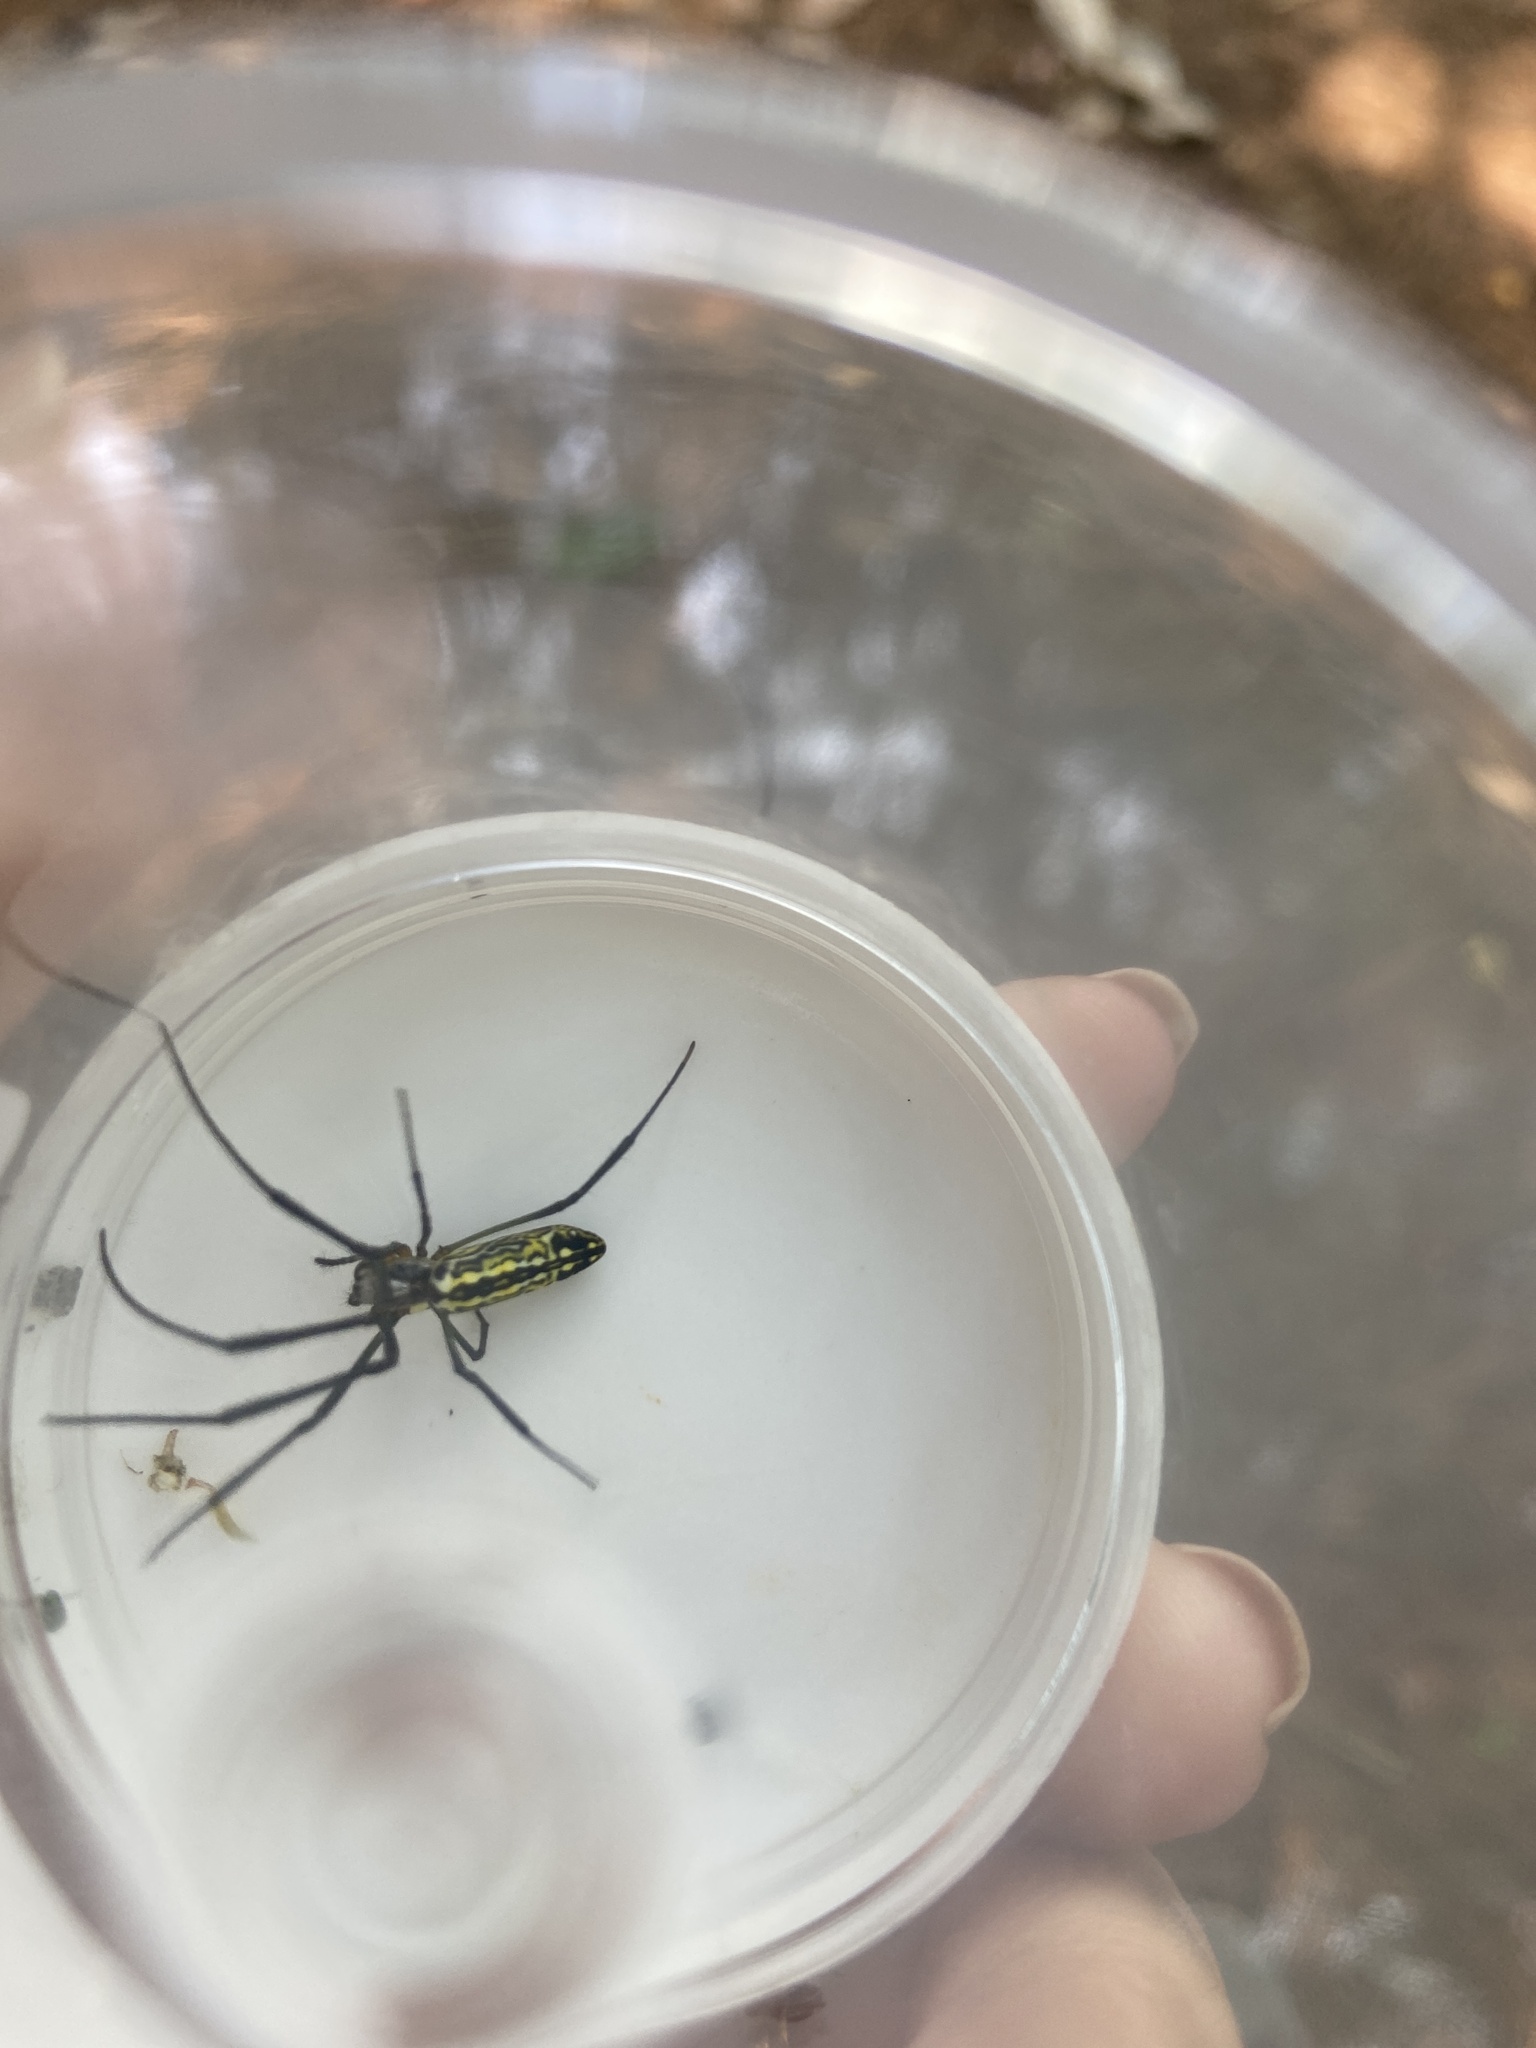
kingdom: Animalia
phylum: Arthropoda
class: Arachnida
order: Araneae
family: Araneidae
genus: Trichonephila
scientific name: Trichonephila clavata
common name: Jorō spider
